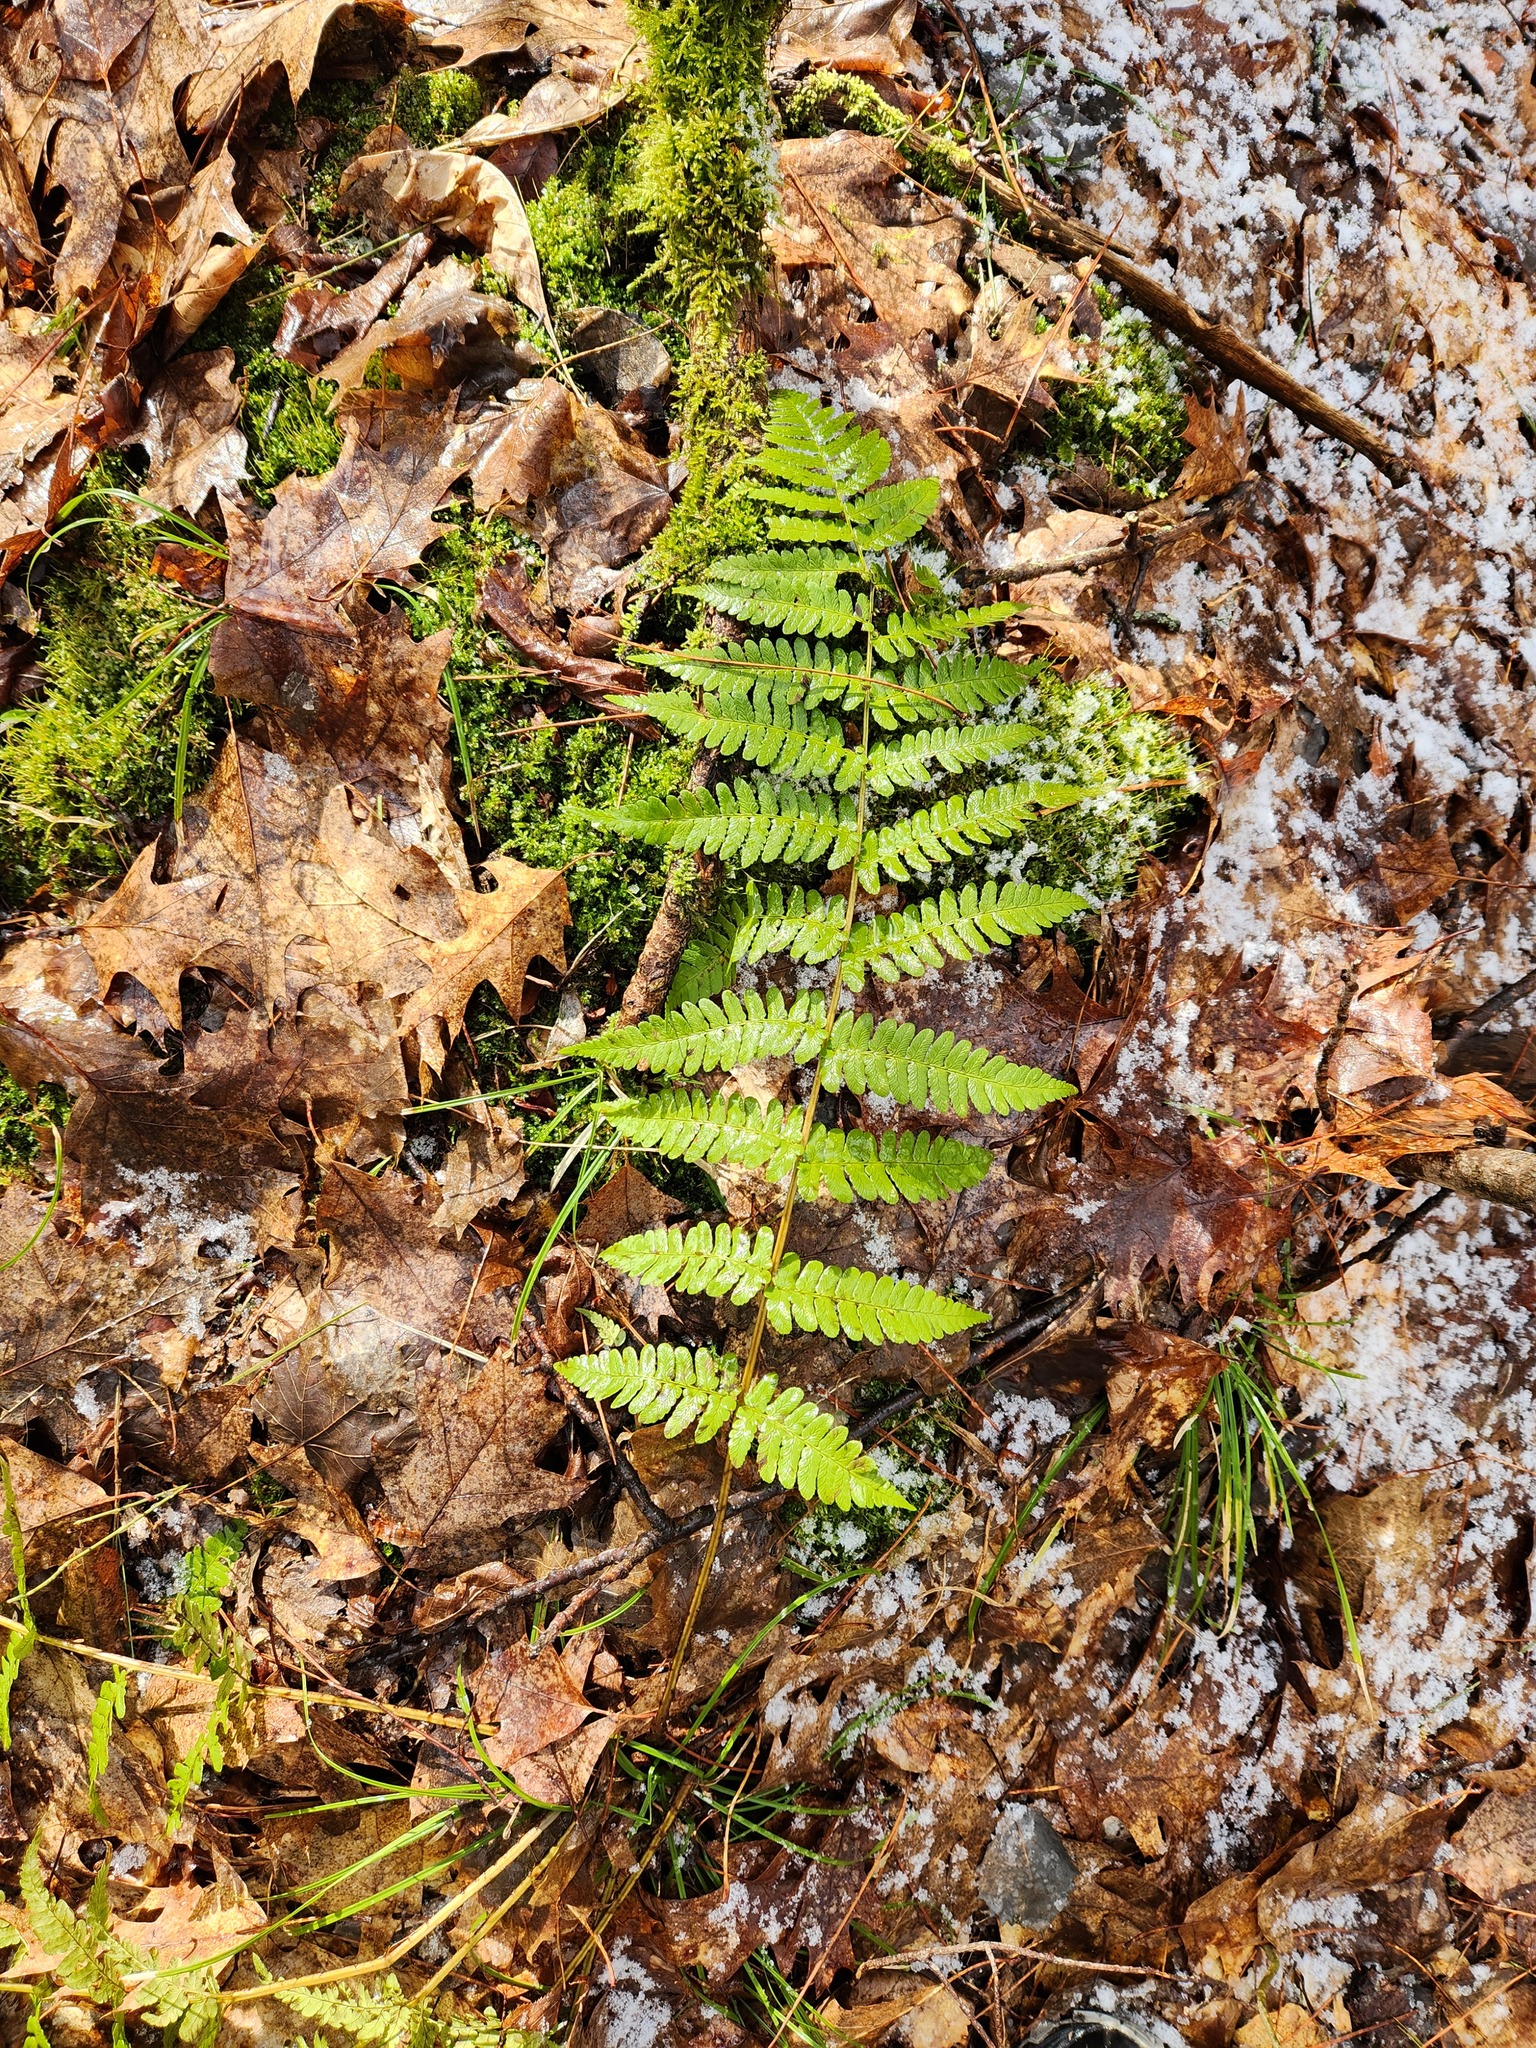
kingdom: Plantae
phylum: Tracheophyta
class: Polypodiopsida
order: Polypodiales
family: Dryopteridaceae
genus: Dryopteris
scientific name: Dryopteris marginalis
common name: Marginal wood fern
